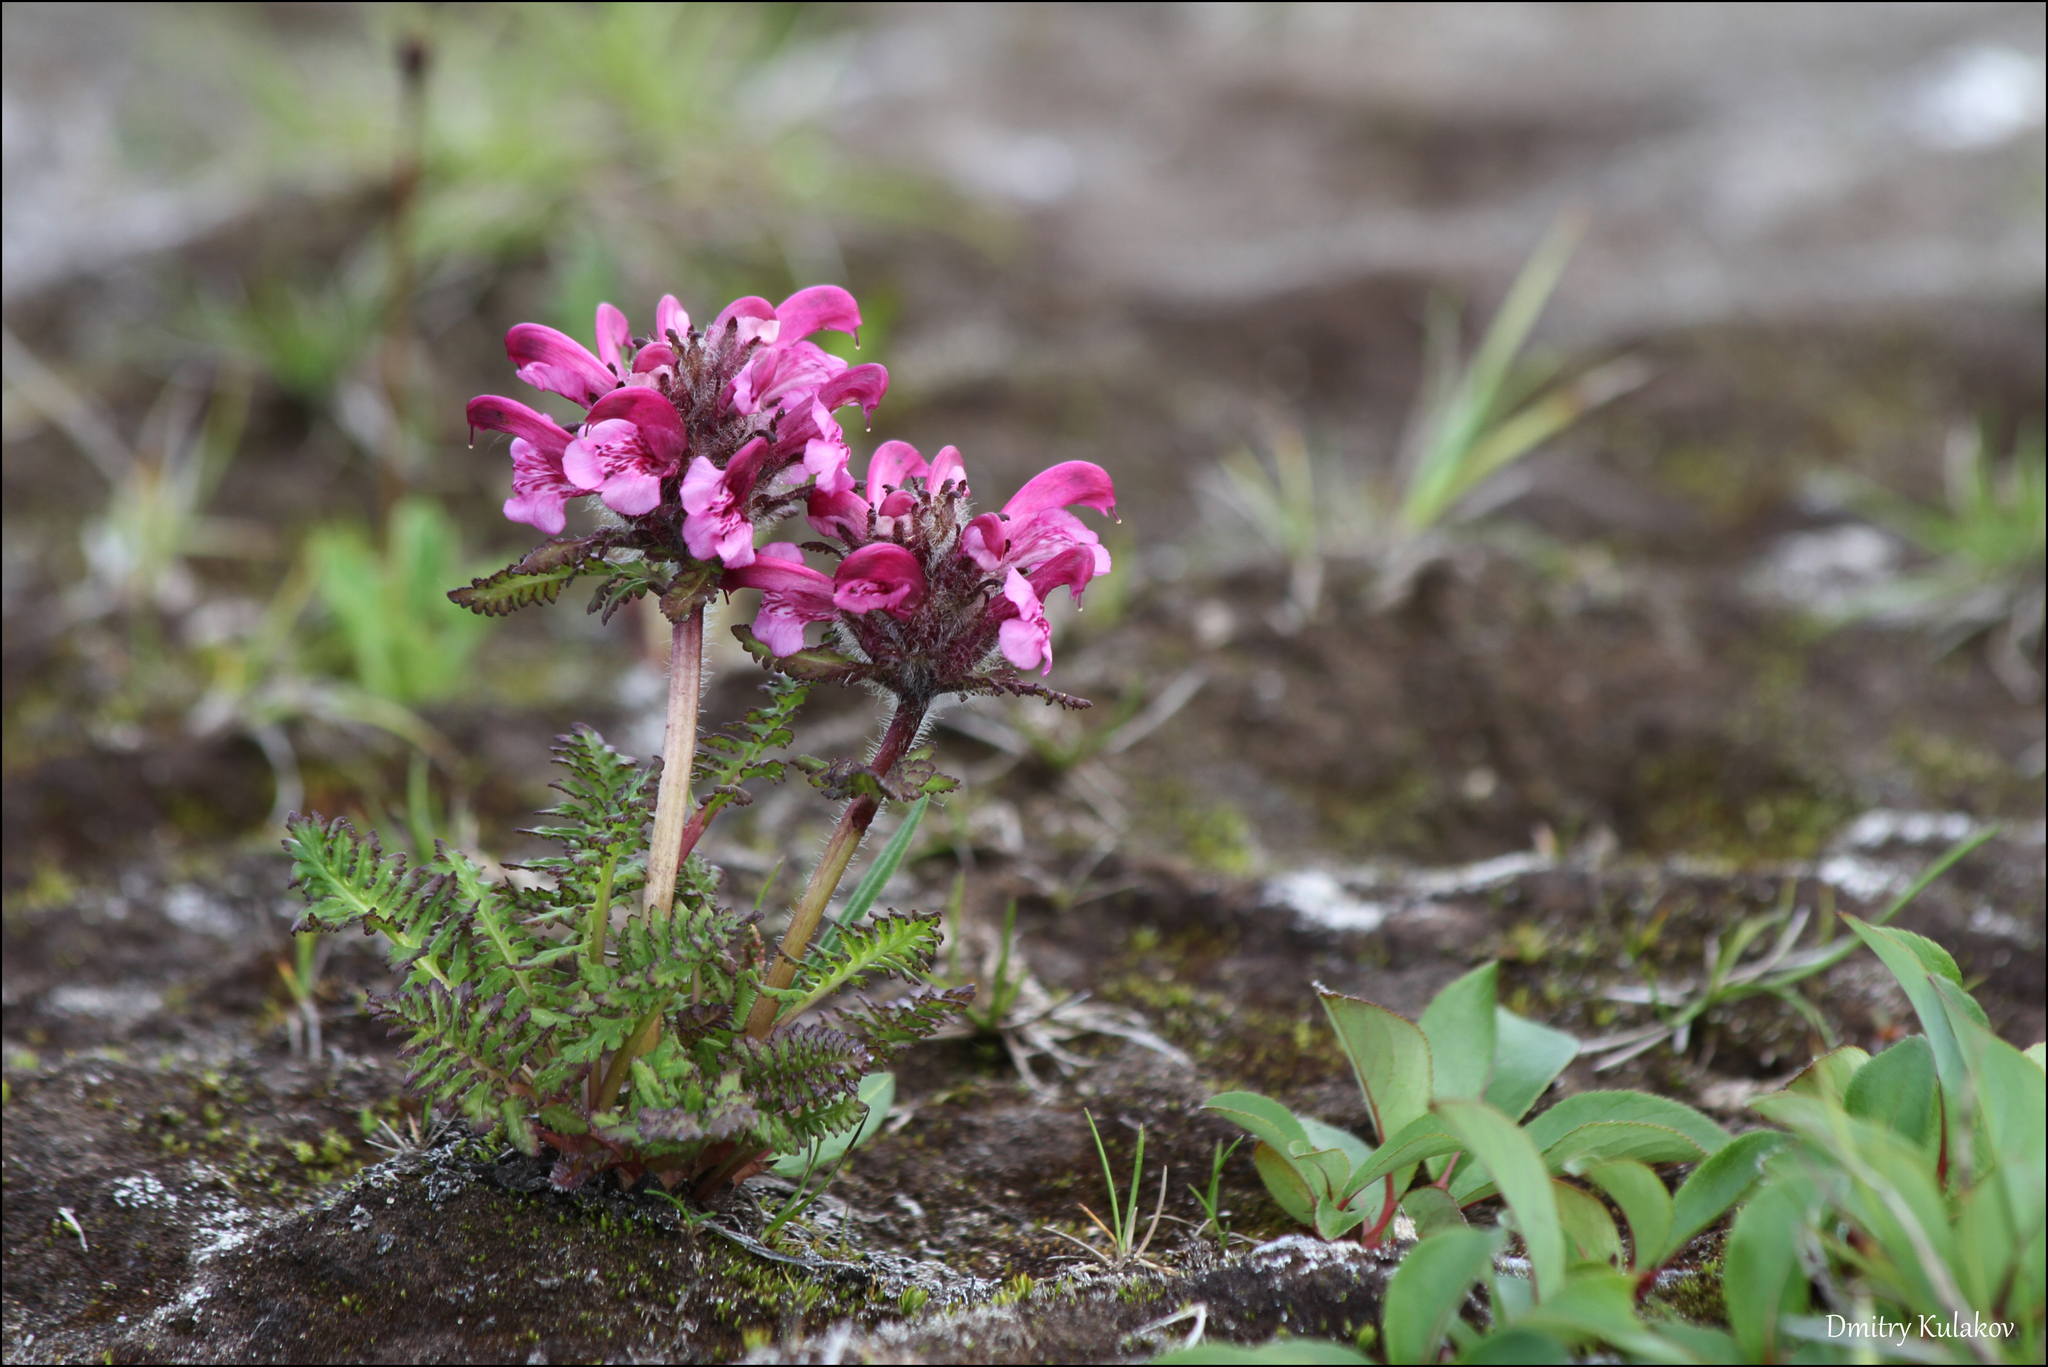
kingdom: Plantae
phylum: Tracheophyta
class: Magnoliopsida
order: Lamiales
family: Orobanchaceae
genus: Pedicularis
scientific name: Pedicularis verticillata
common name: Whorled lousewort
